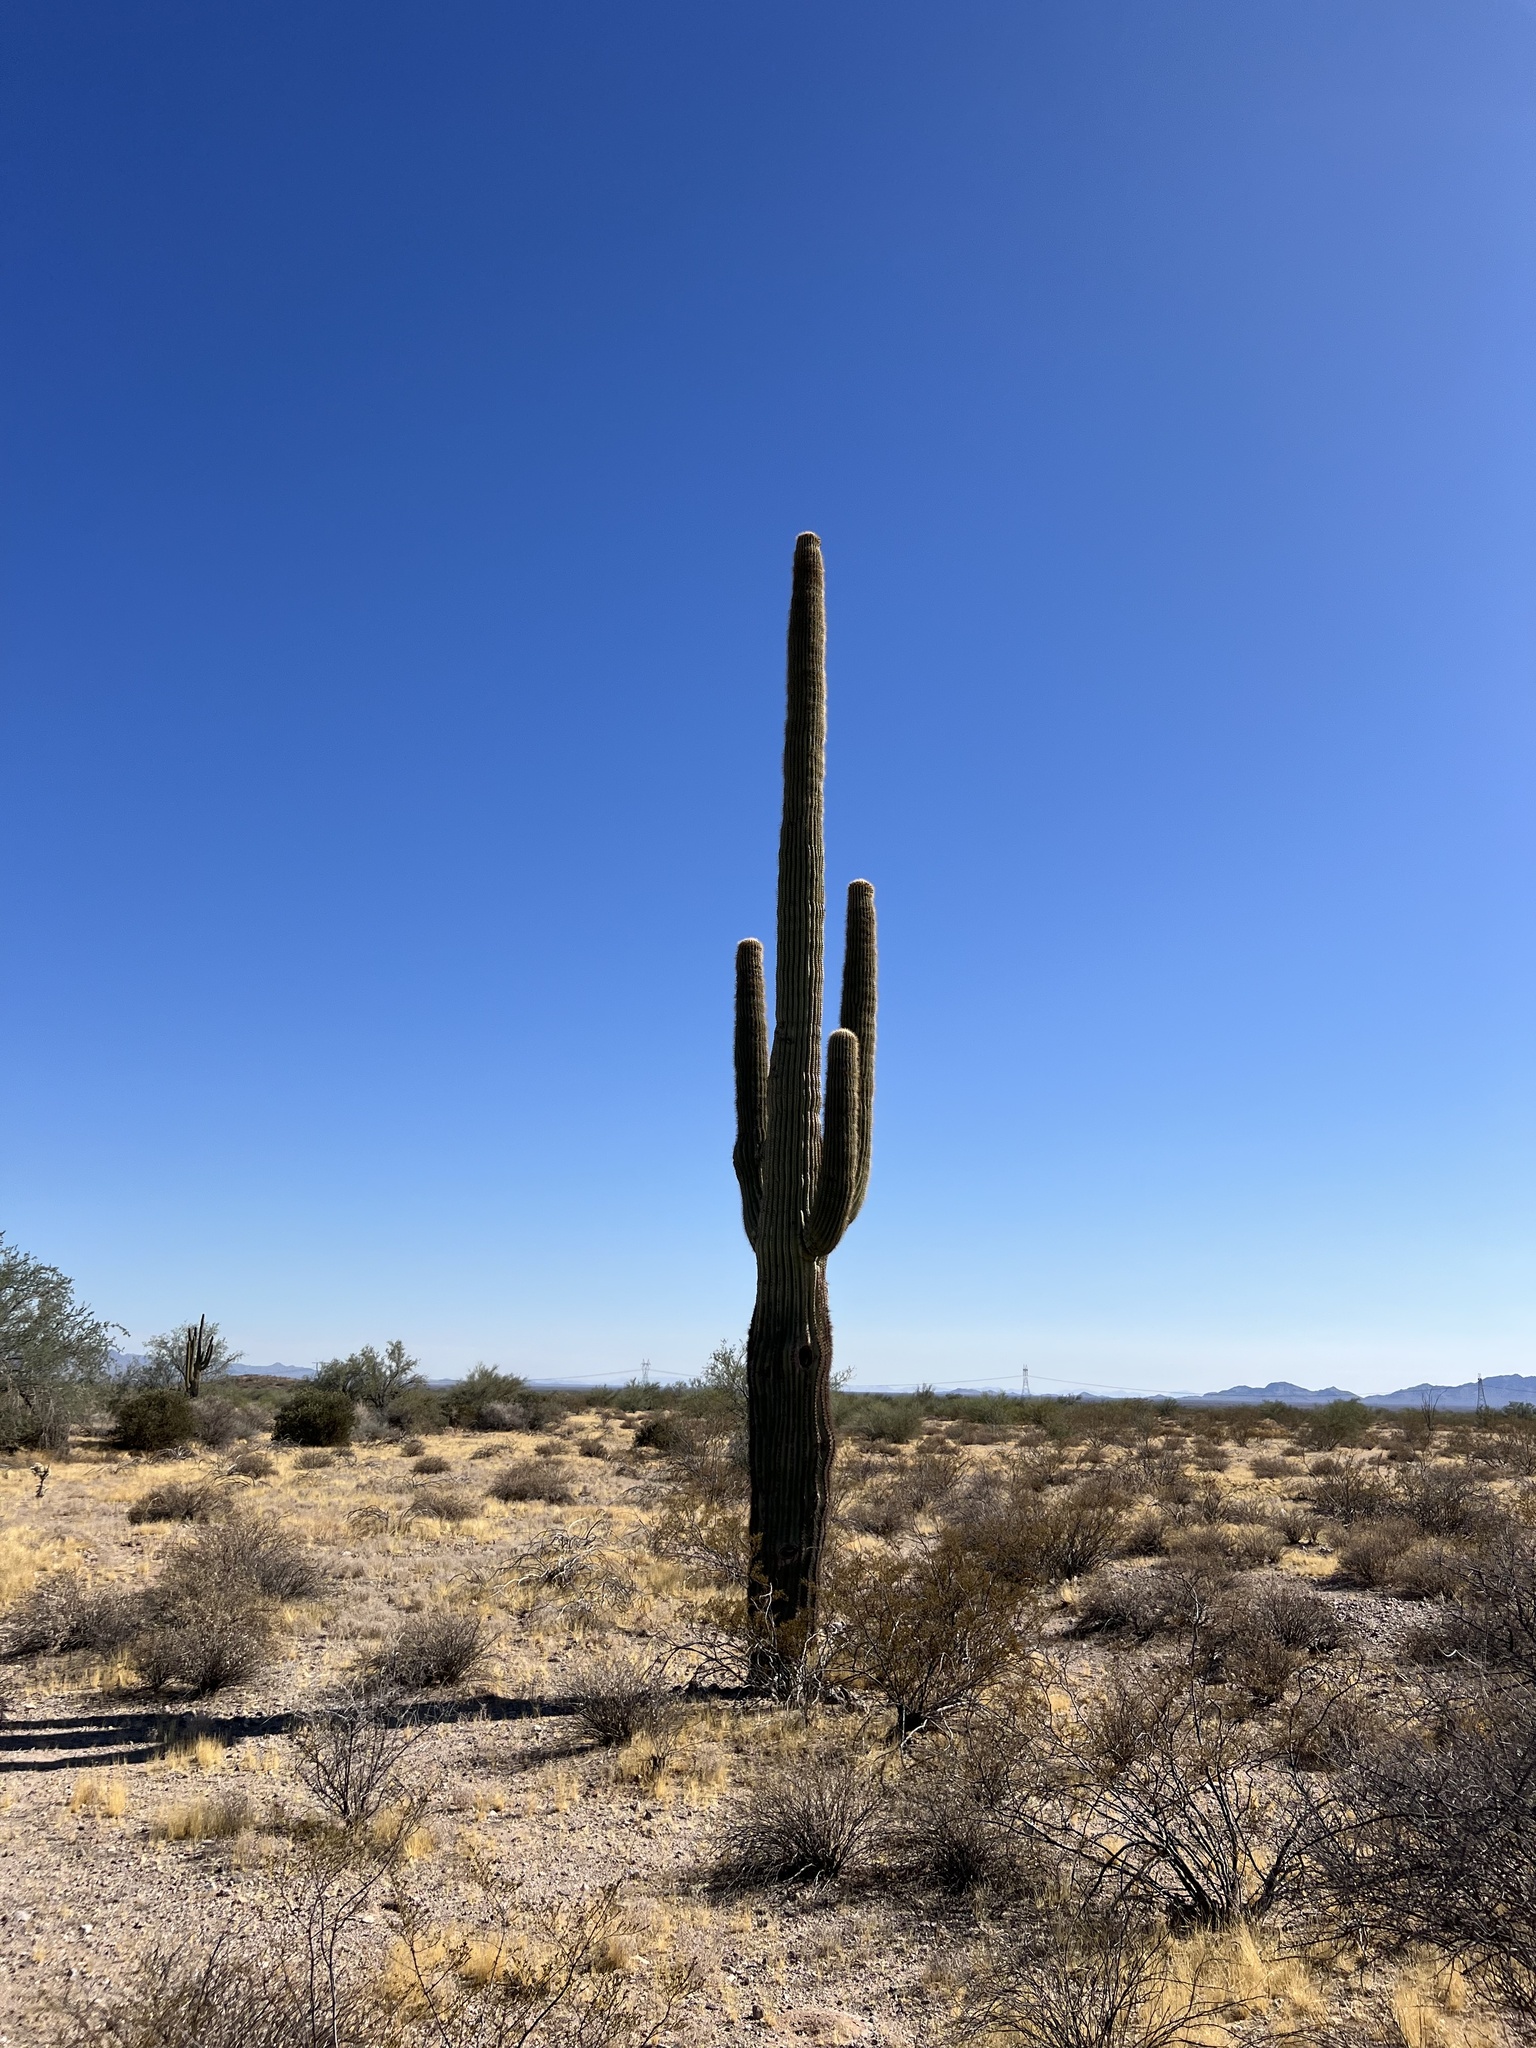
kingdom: Plantae
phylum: Tracheophyta
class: Magnoliopsida
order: Caryophyllales
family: Cactaceae
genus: Carnegiea
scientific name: Carnegiea gigantea
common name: Saguaro
